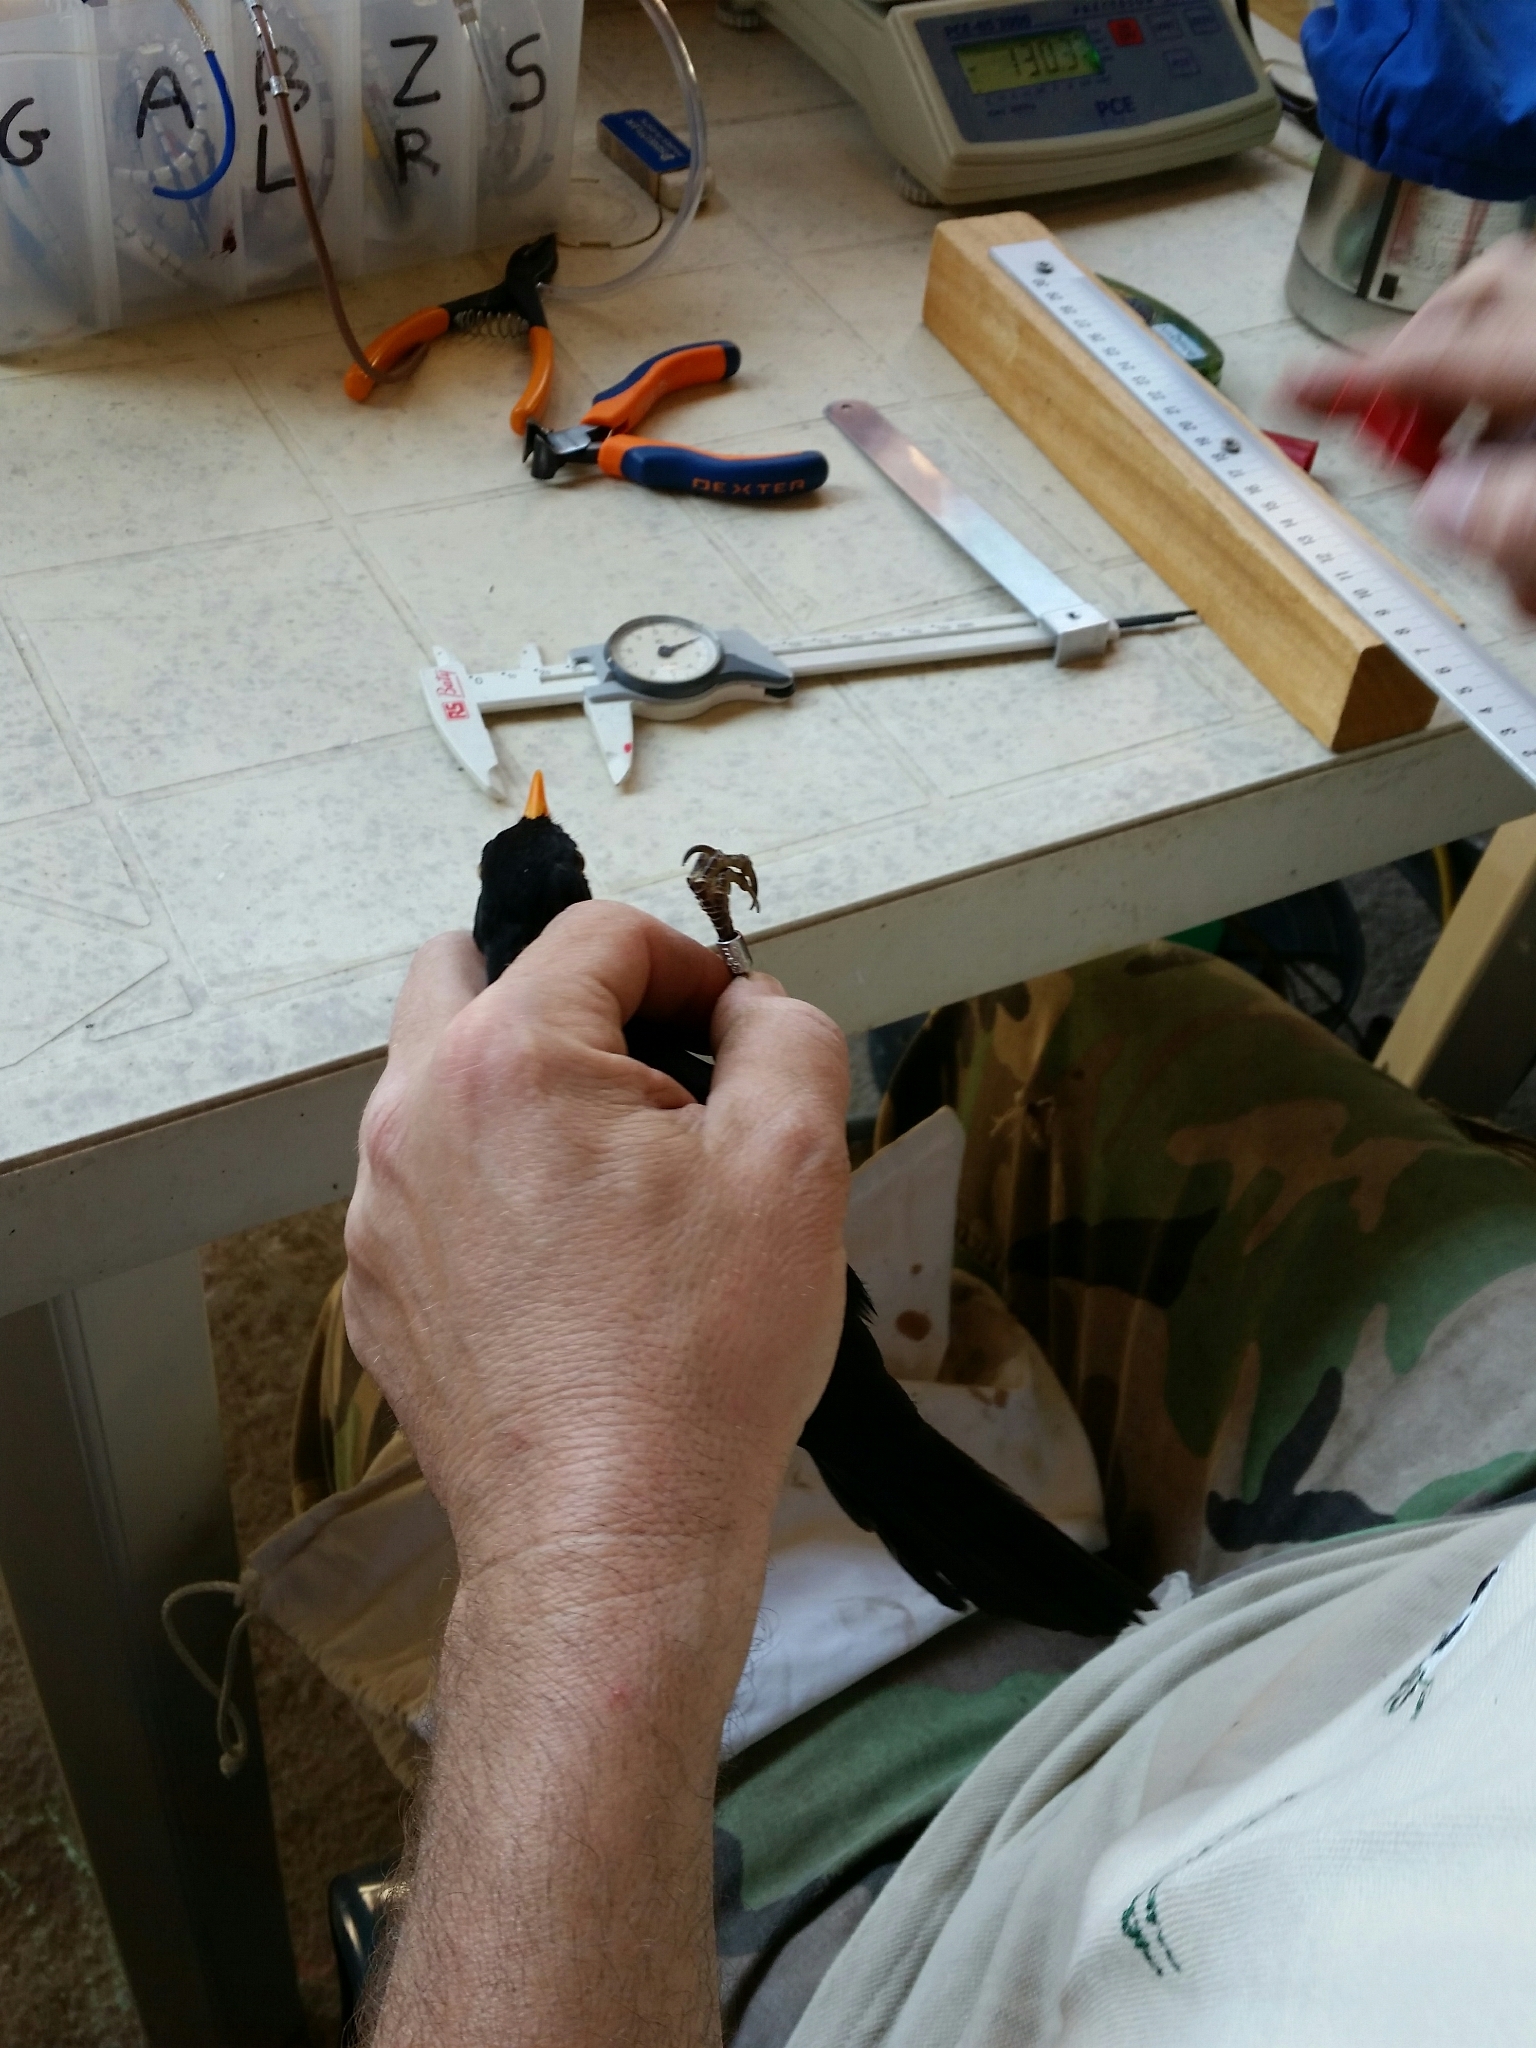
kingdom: Animalia
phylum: Chordata
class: Aves
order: Passeriformes
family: Turdidae
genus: Turdus
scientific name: Turdus merula
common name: Common blackbird
